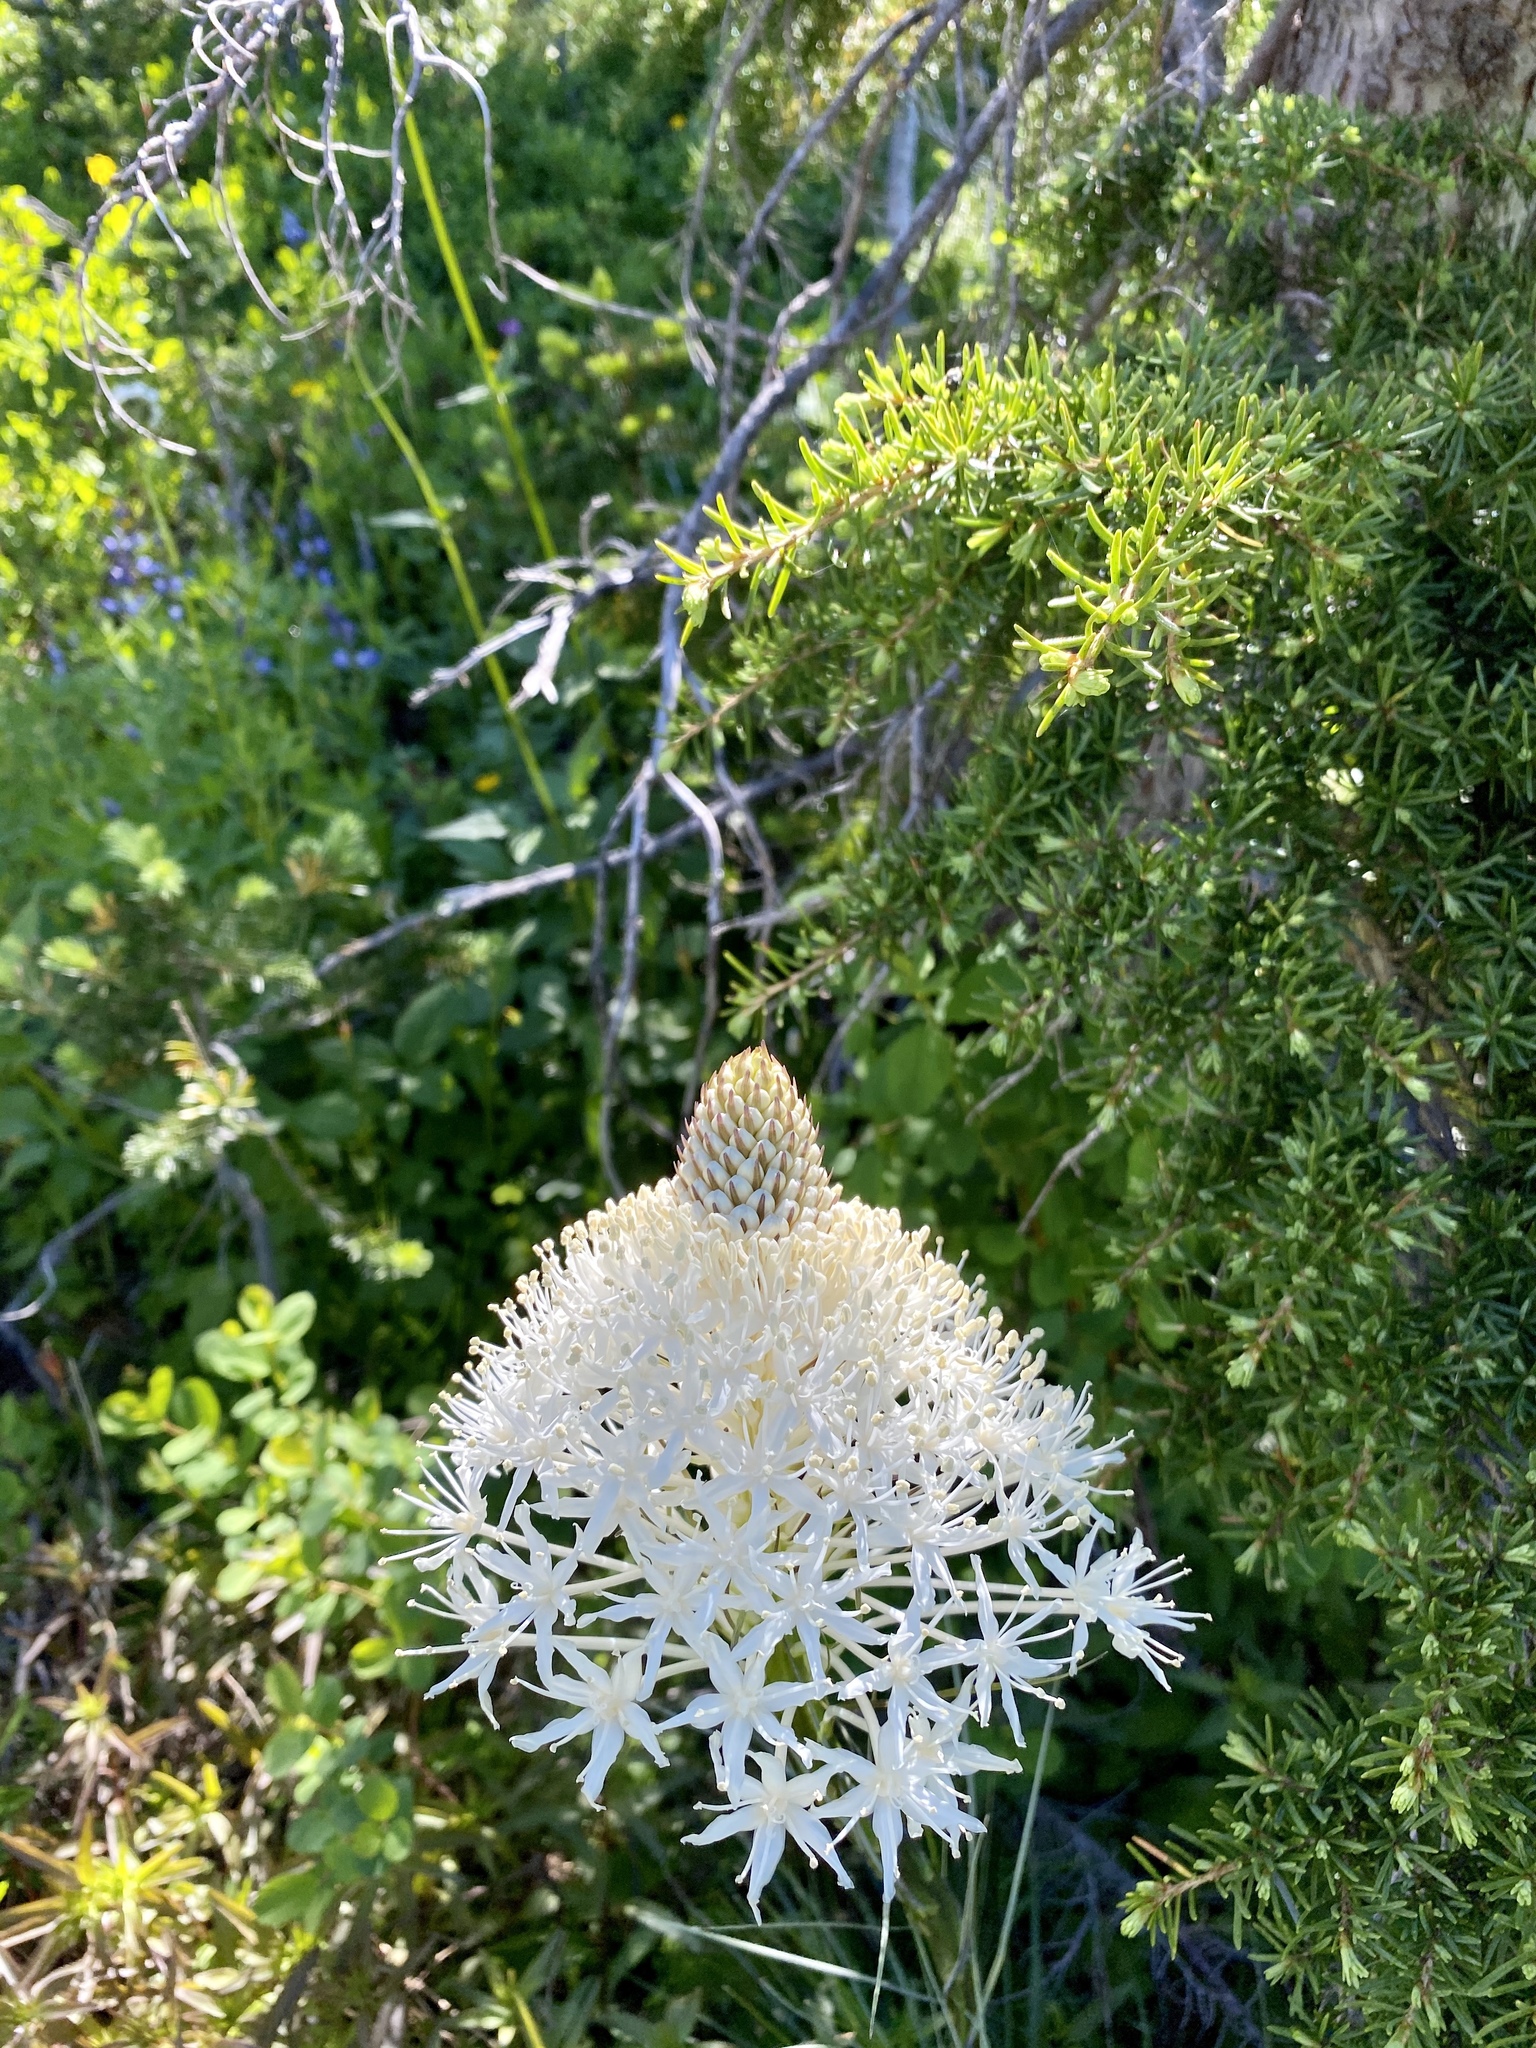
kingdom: Plantae
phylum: Tracheophyta
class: Liliopsida
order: Liliales
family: Melanthiaceae
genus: Xerophyllum
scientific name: Xerophyllum tenax
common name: Bear-grass
